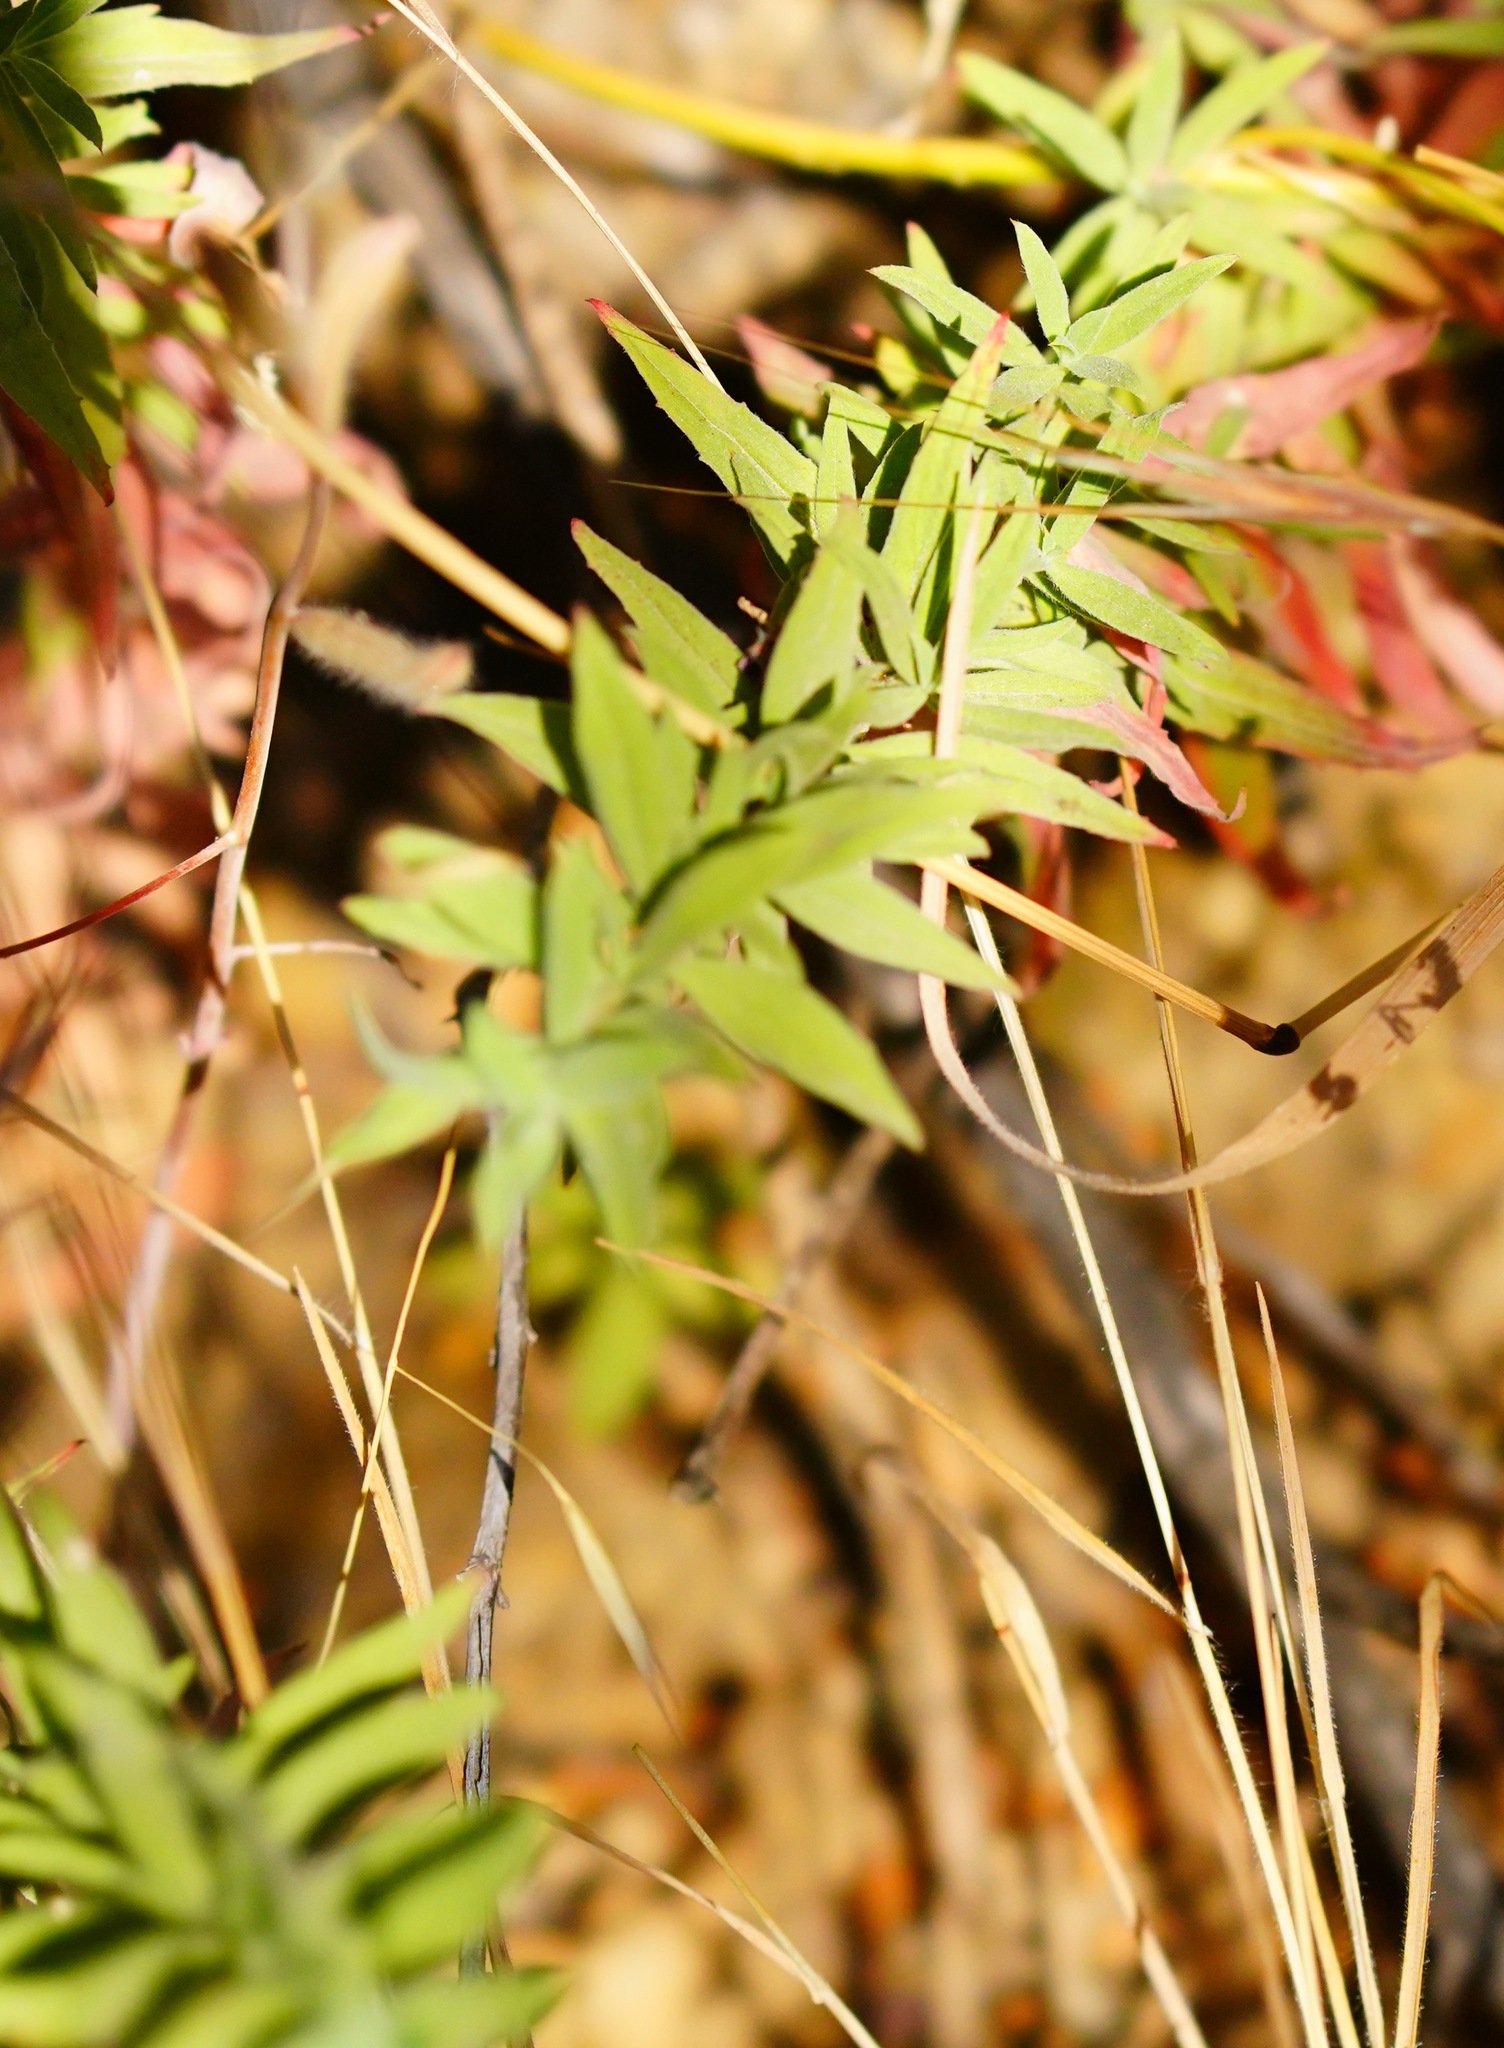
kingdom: Plantae
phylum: Tracheophyta
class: Magnoliopsida
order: Myrtales
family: Onagraceae
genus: Epilobium
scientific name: Epilobium canum
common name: California-fuchsia
